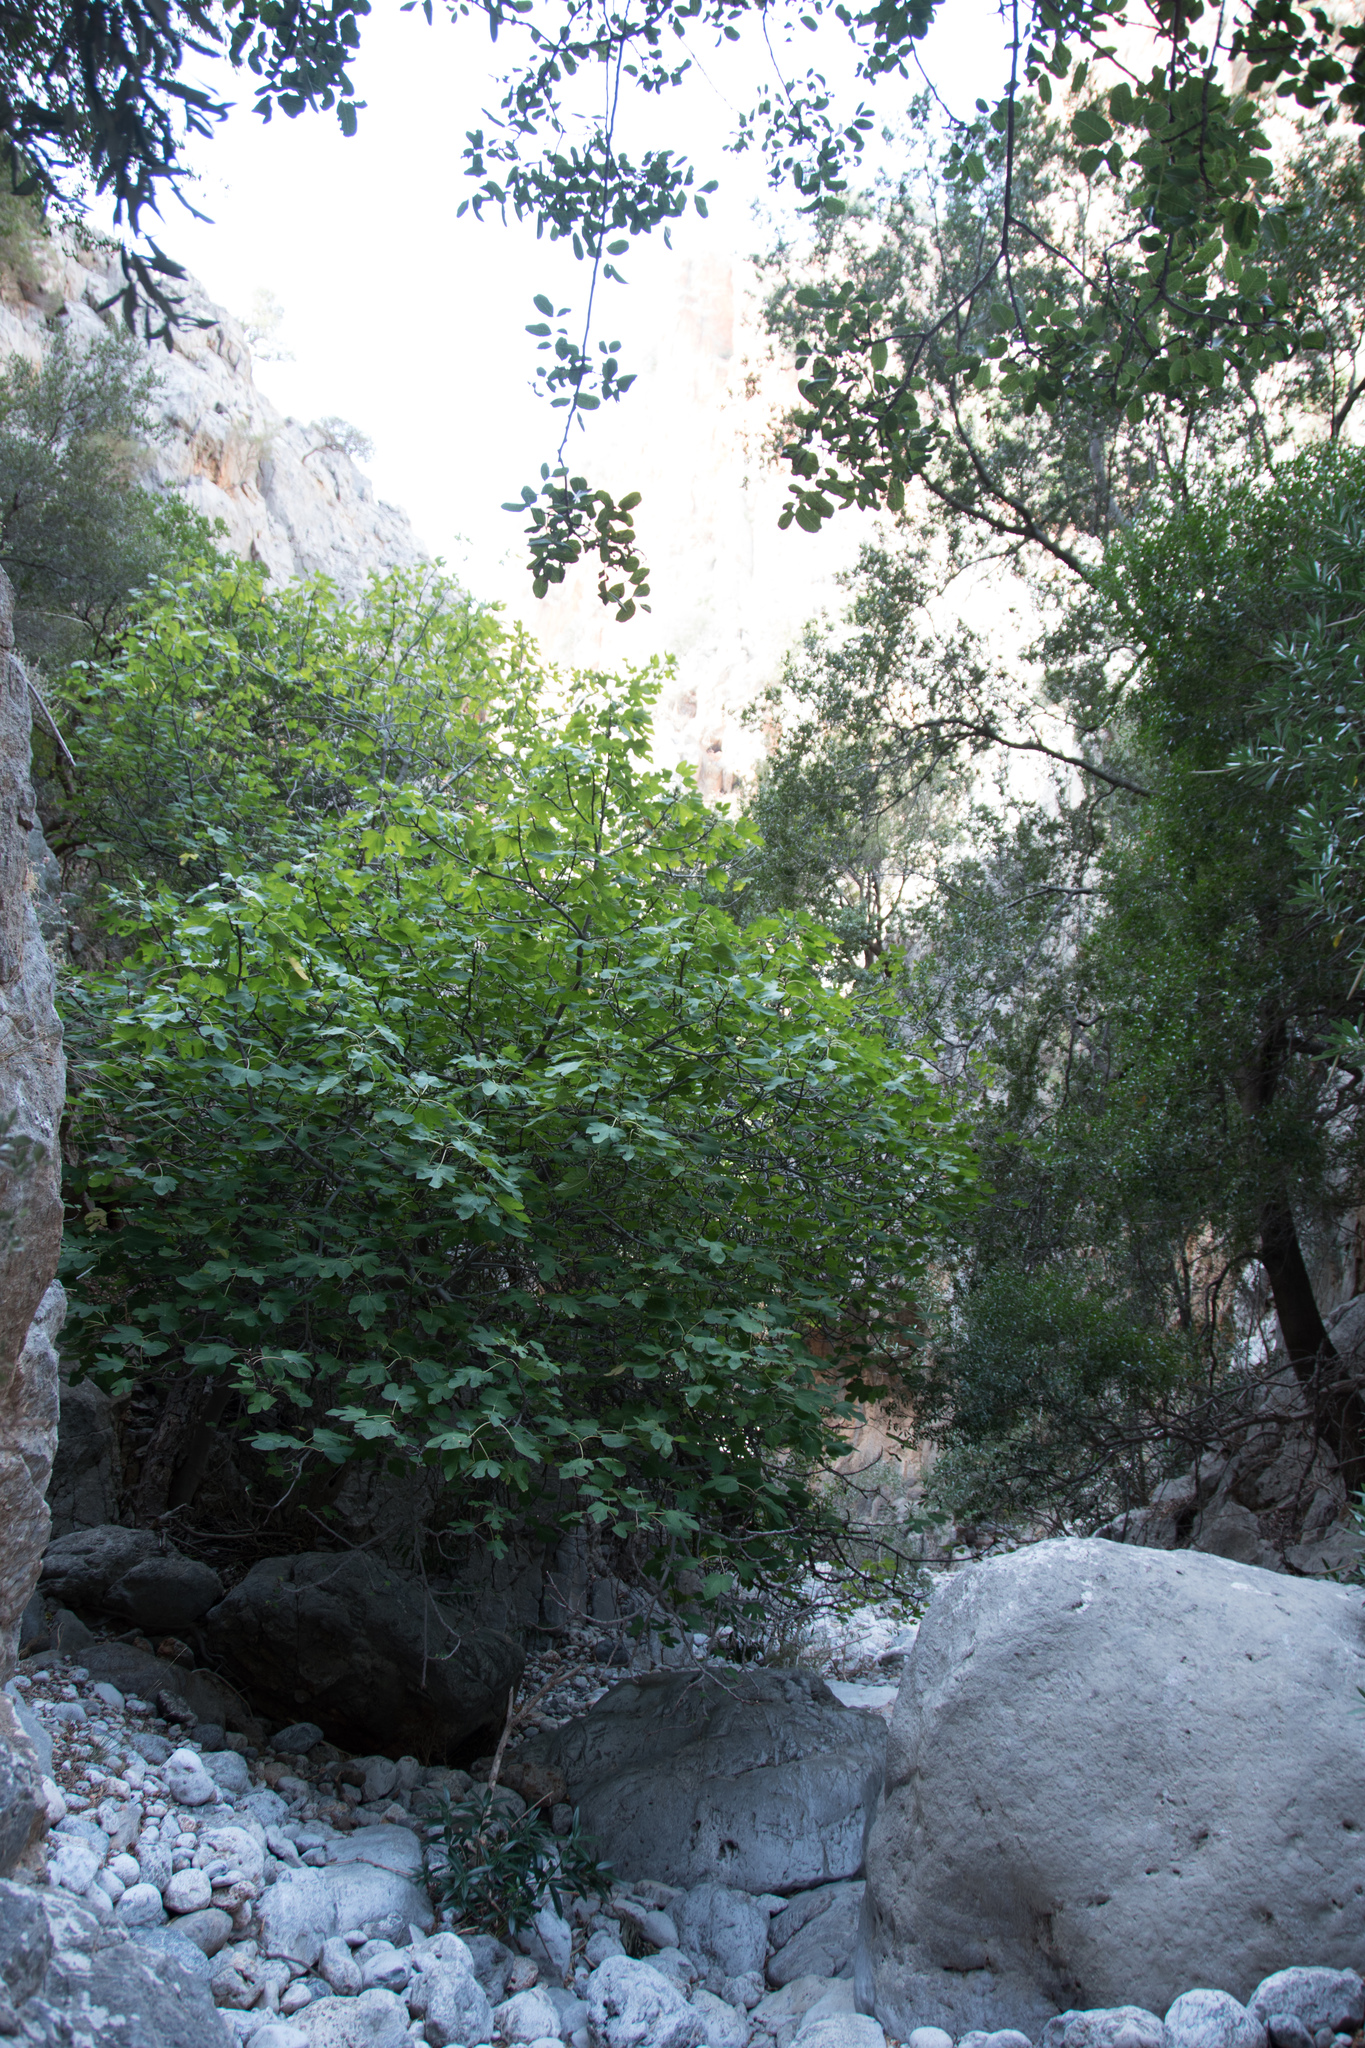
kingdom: Plantae
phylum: Tracheophyta
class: Magnoliopsida
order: Rosales
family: Moraceae
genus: Ficus
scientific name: Ficus carica
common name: Fig
